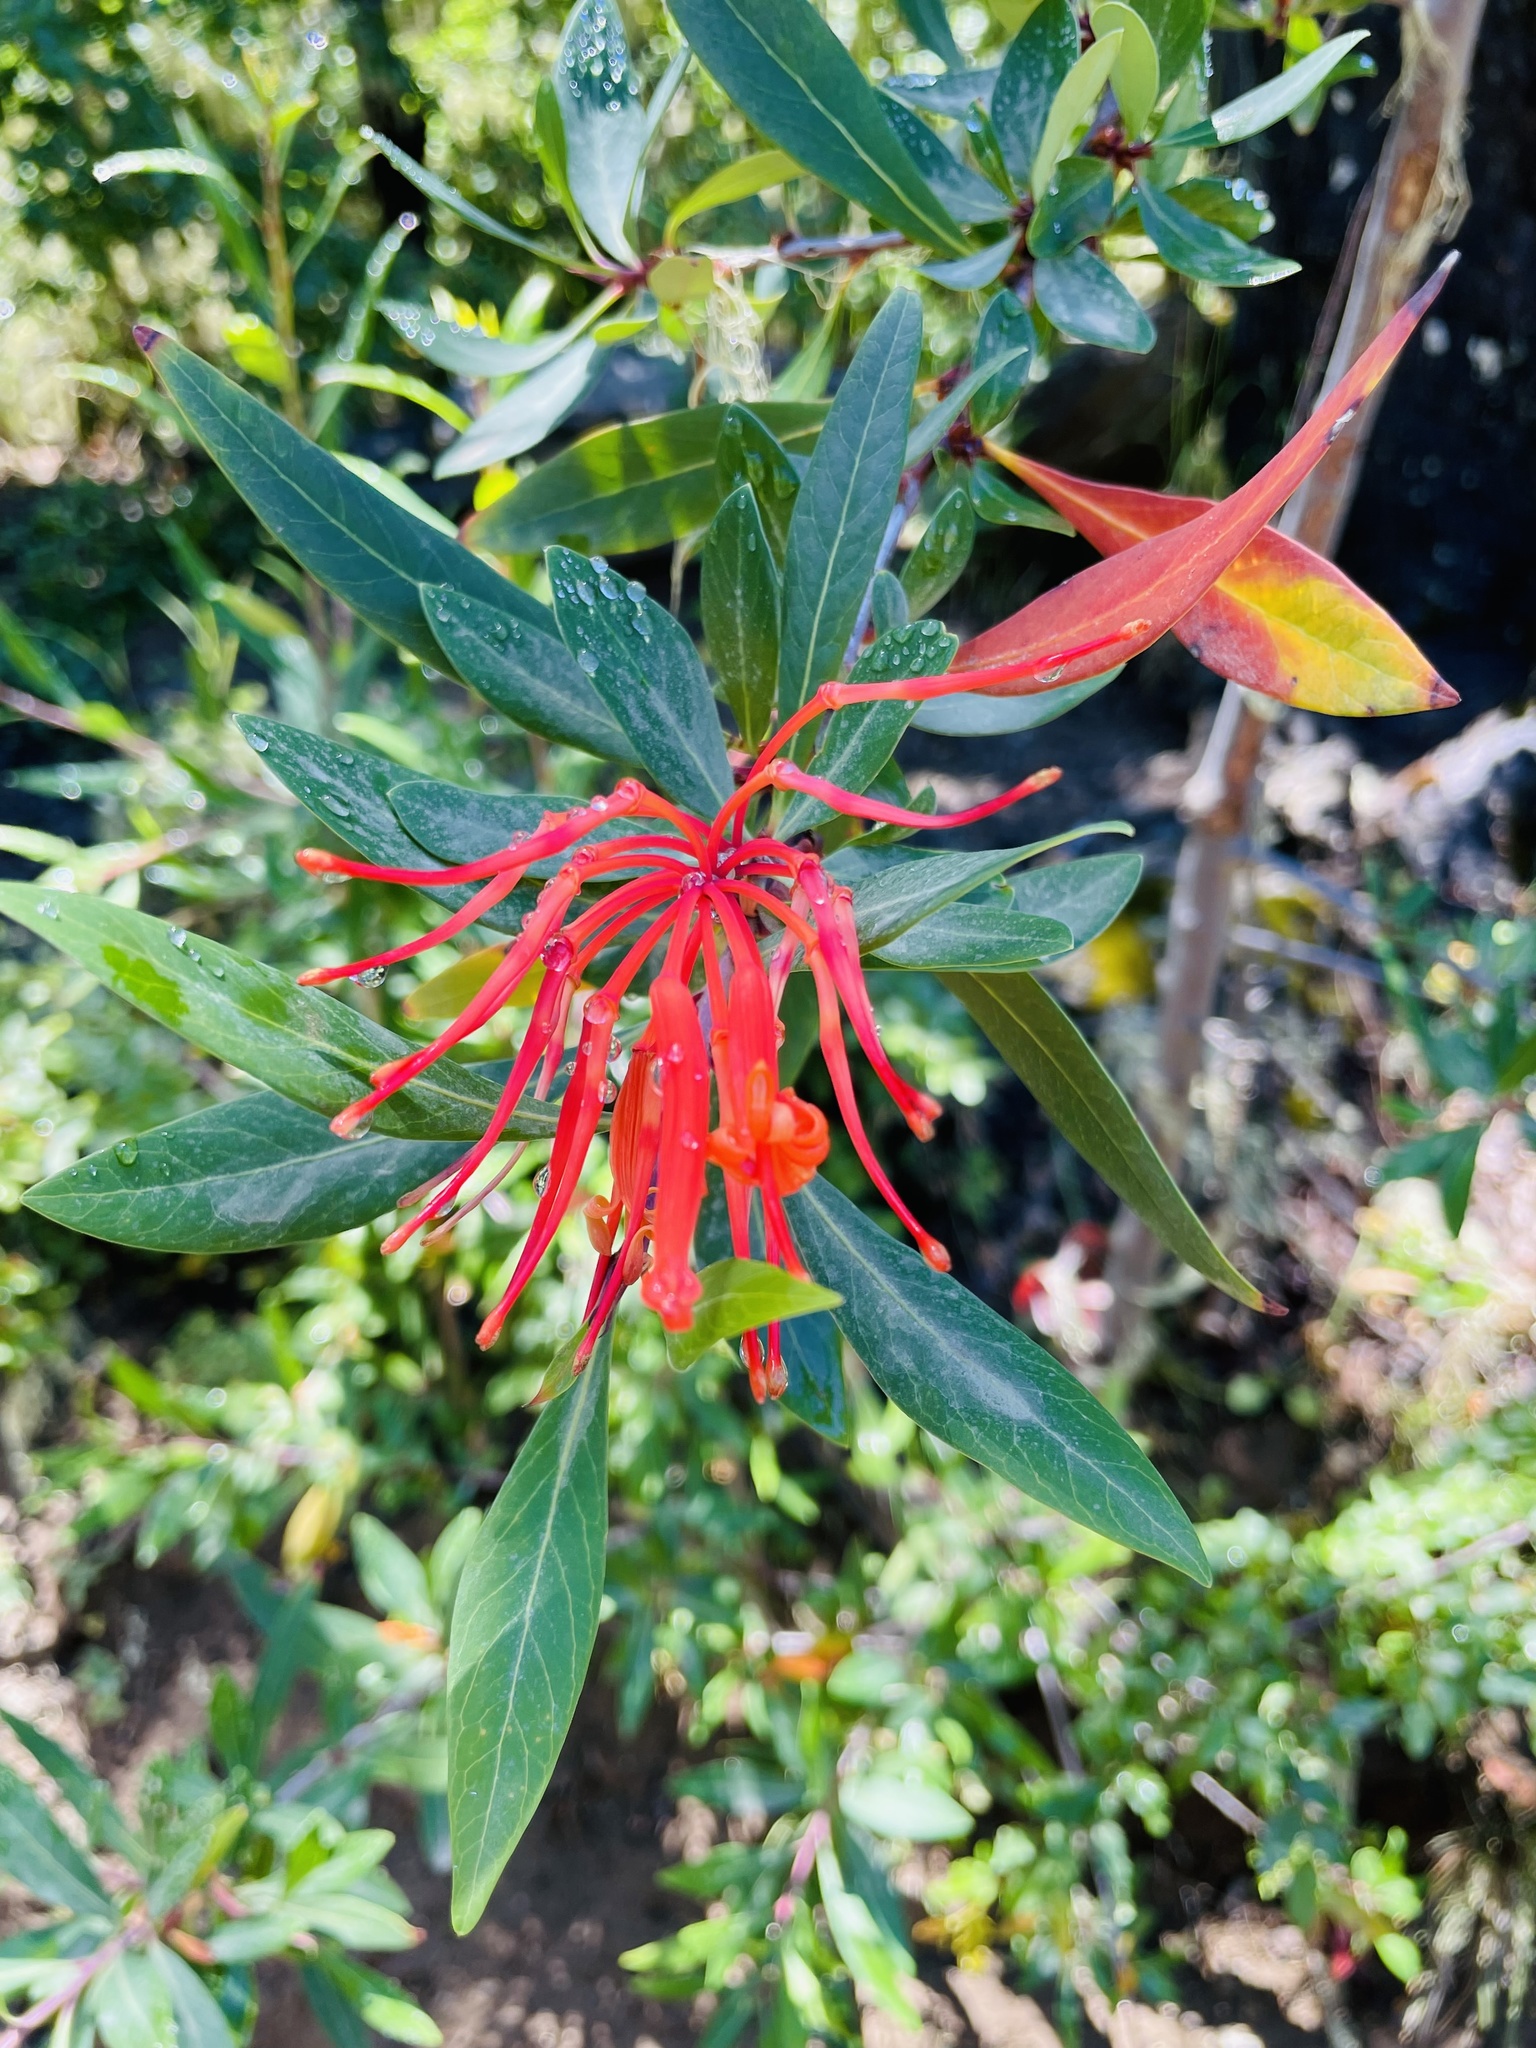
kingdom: Plantae
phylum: Tracheophyta
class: Magnoliopsida
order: Proteales
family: Proteaceae
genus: Embothrium
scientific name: Embothrium coccineum
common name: Chilean firebush
